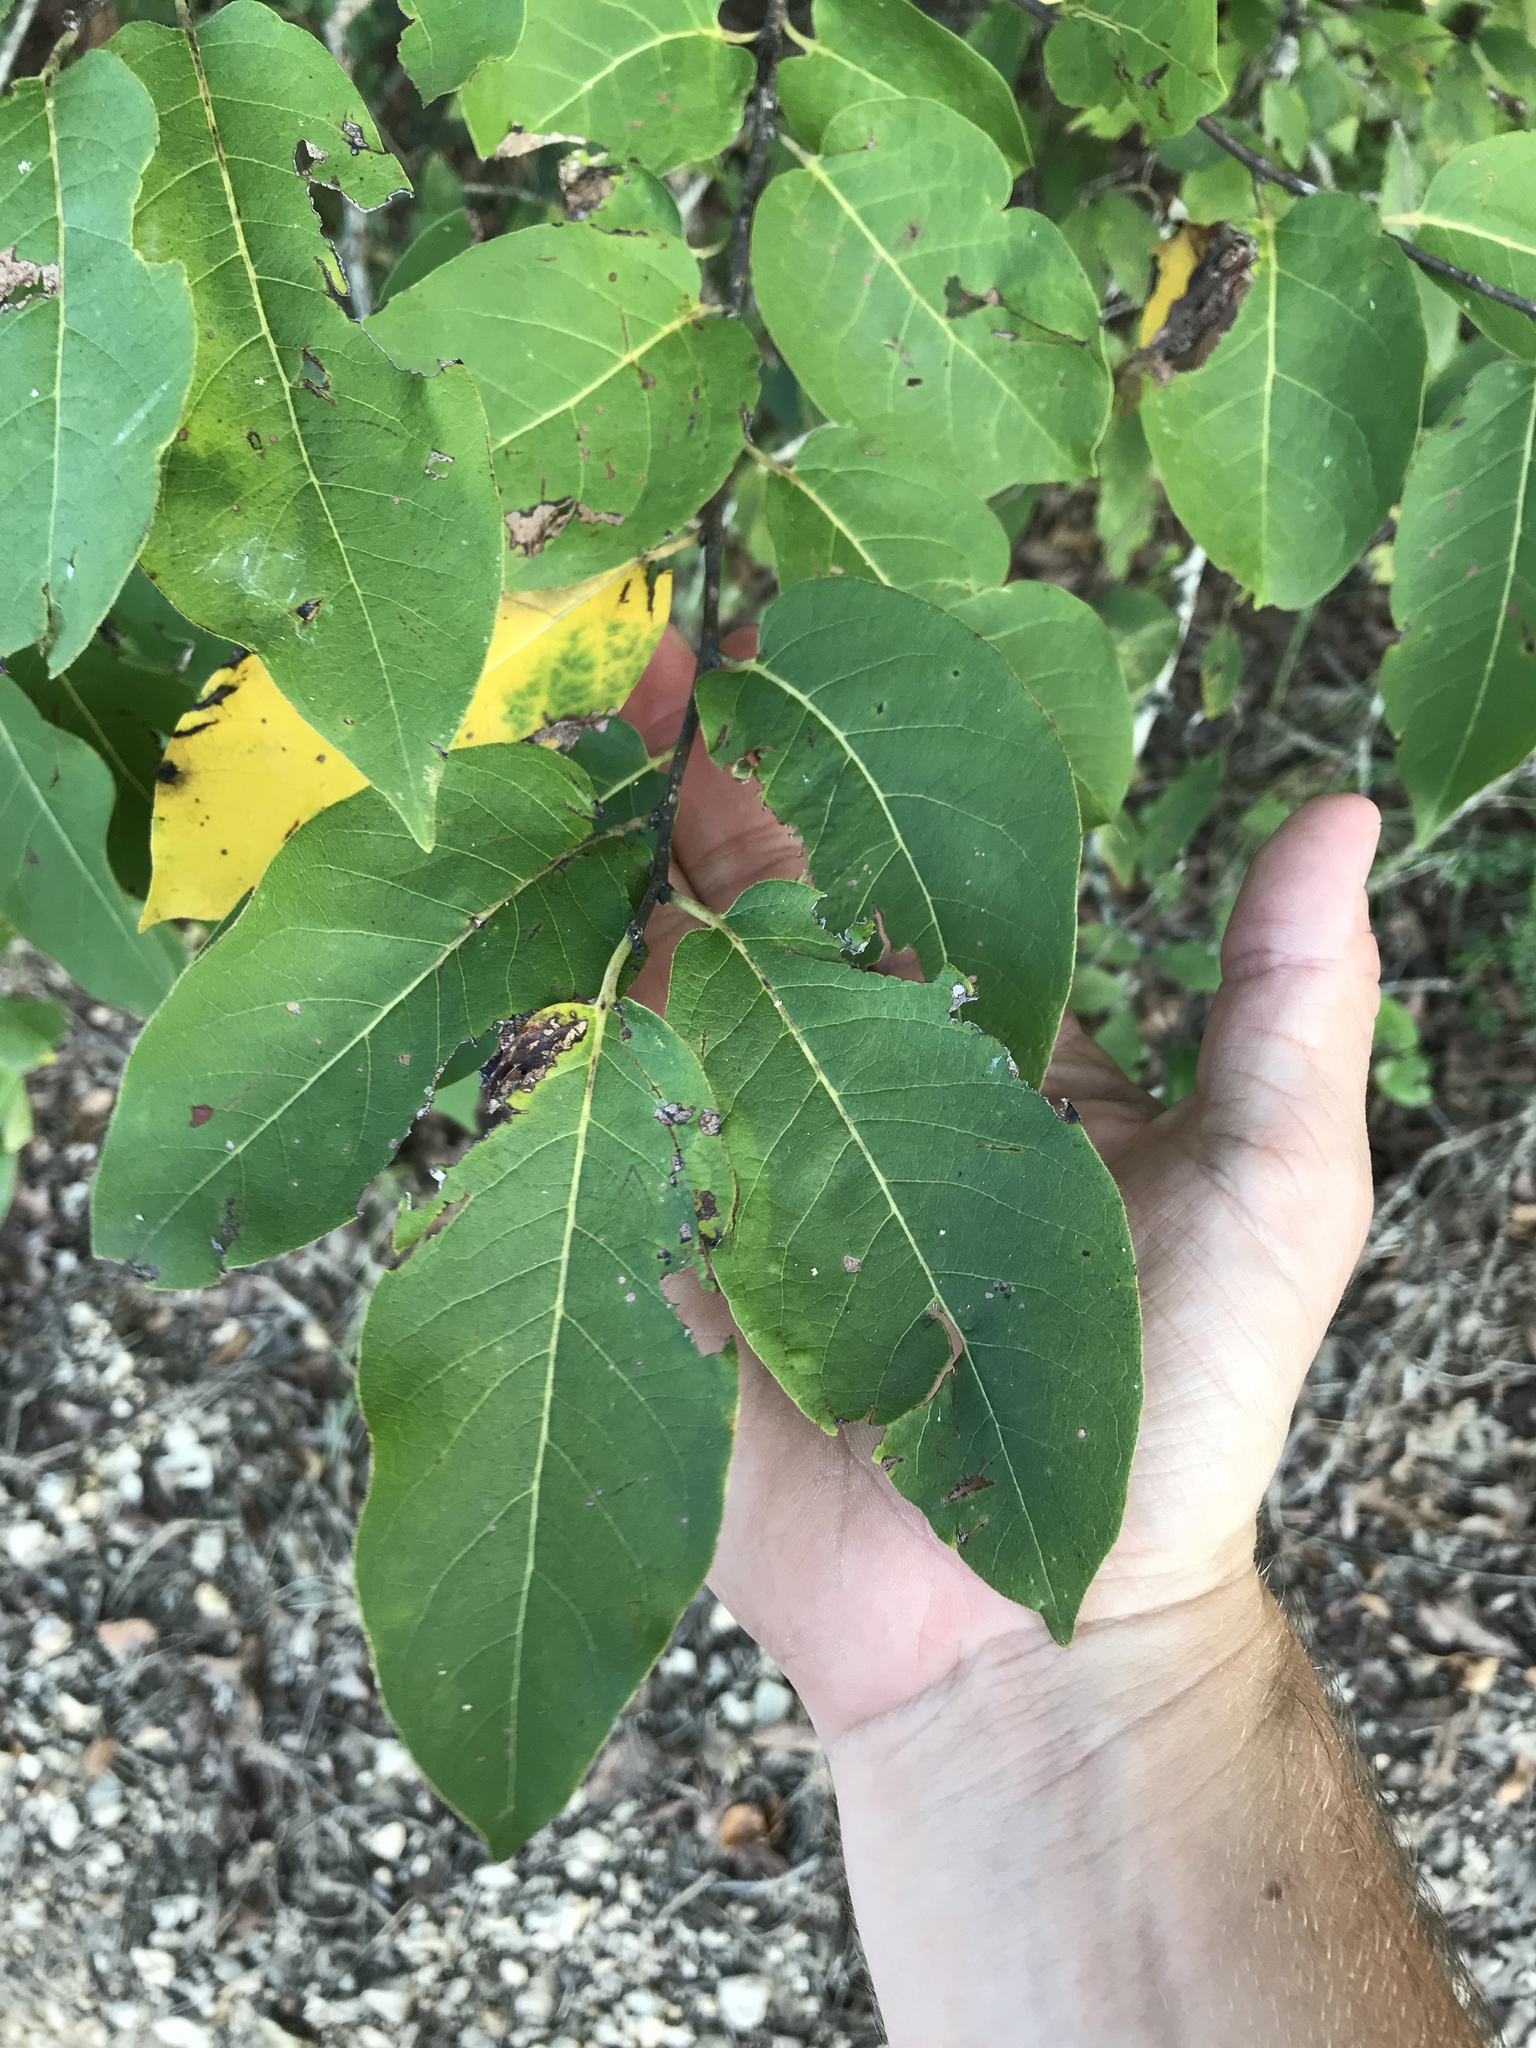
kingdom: Plantae
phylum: Tracheophyta
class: Magnoliopsida
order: Ericales
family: Ebenaceae
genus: Diospyros
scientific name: Diospyros virginiana
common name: Persimmon
